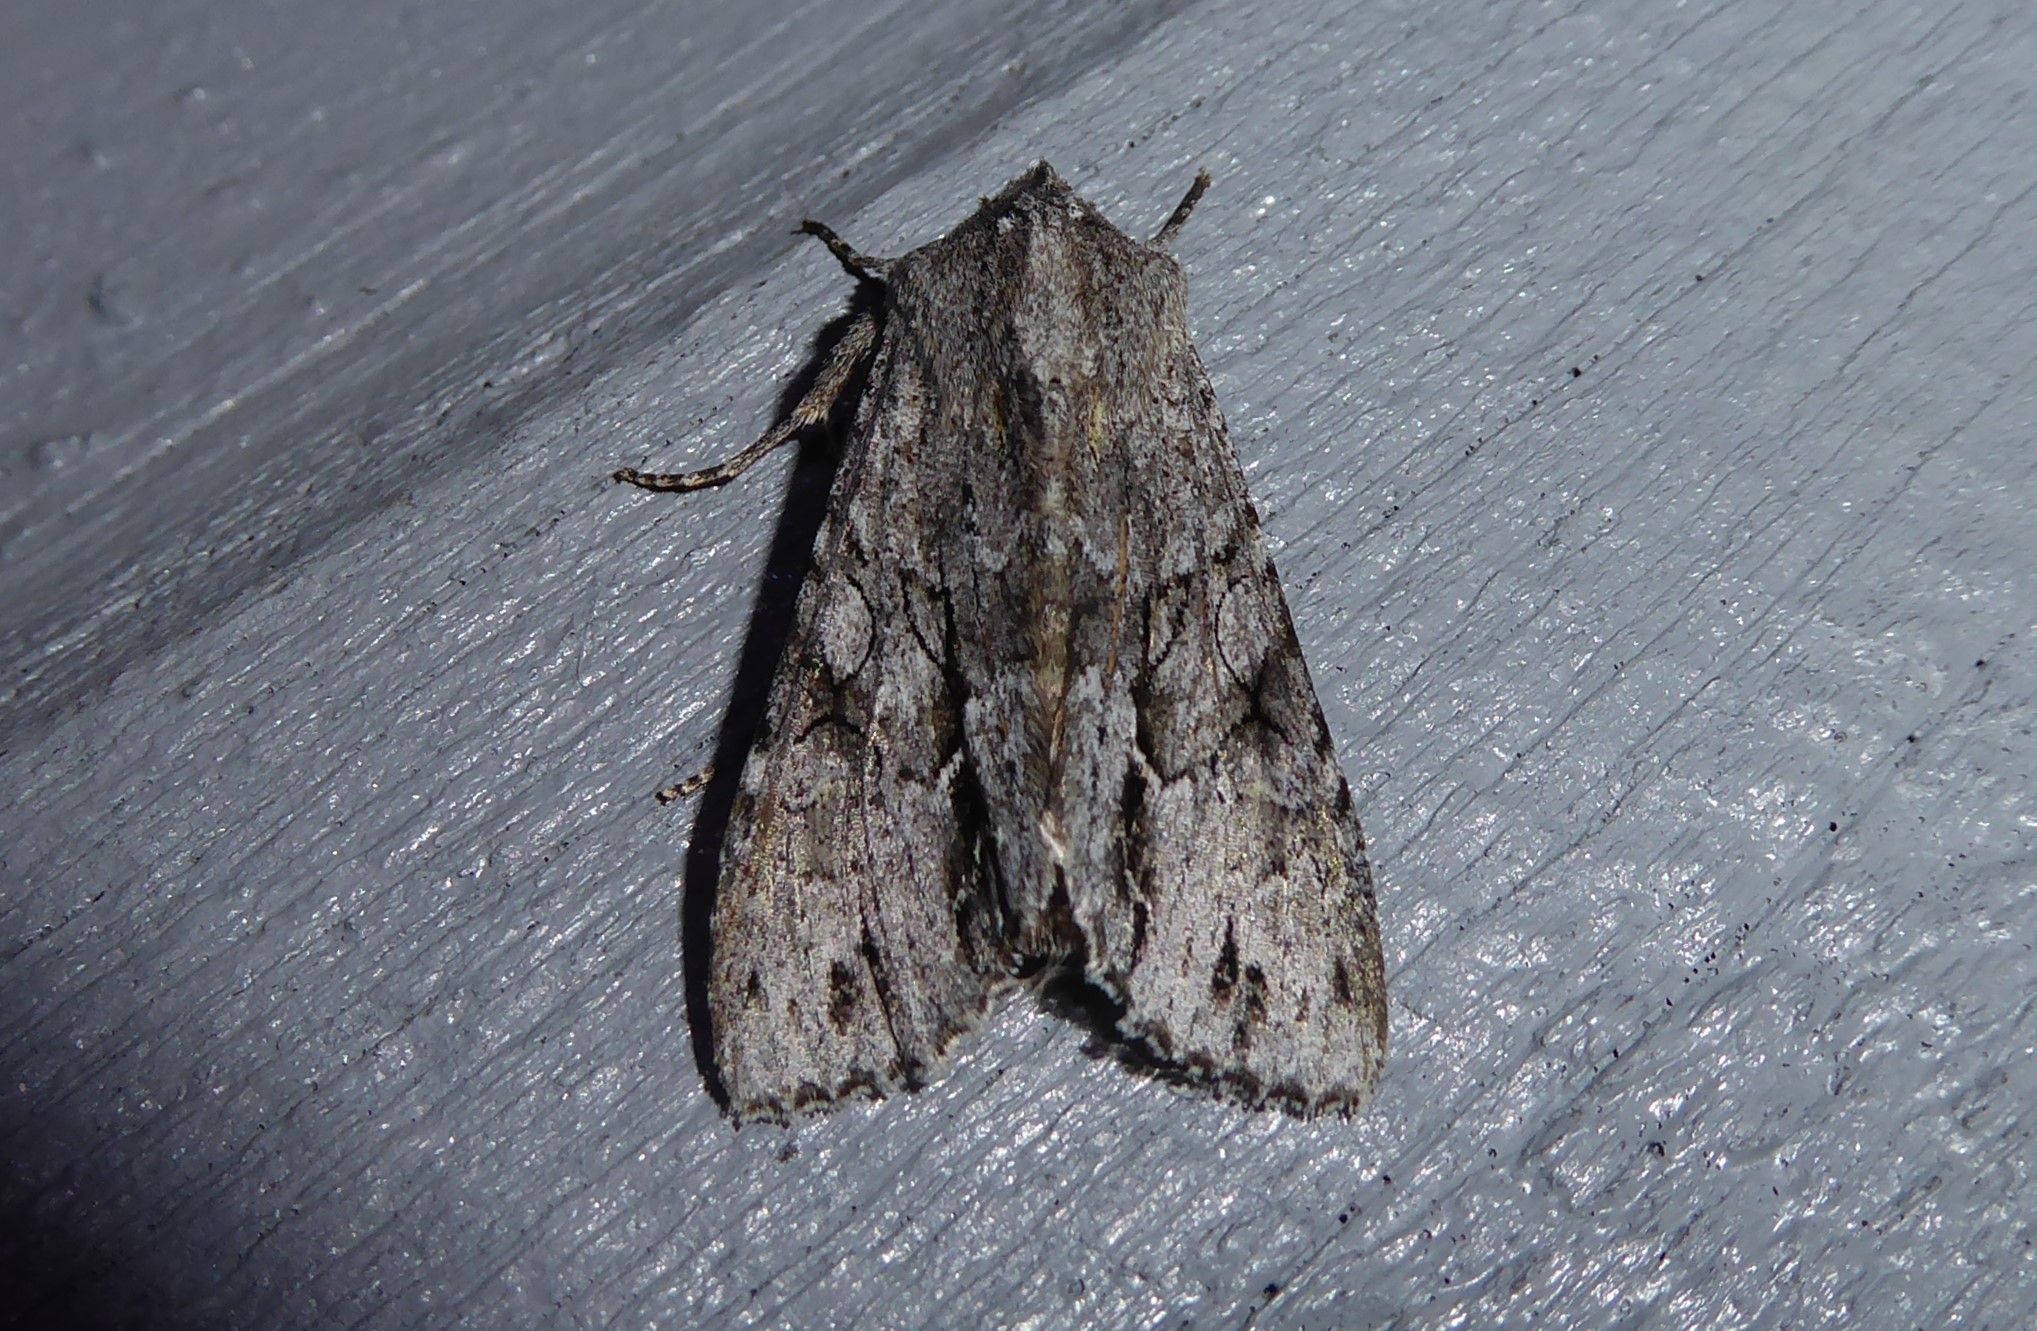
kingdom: Animalia
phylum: Arthropoda
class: Insecta
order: Lepidoptera
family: Noctuidae
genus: Ichneutica
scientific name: Ichneutica
